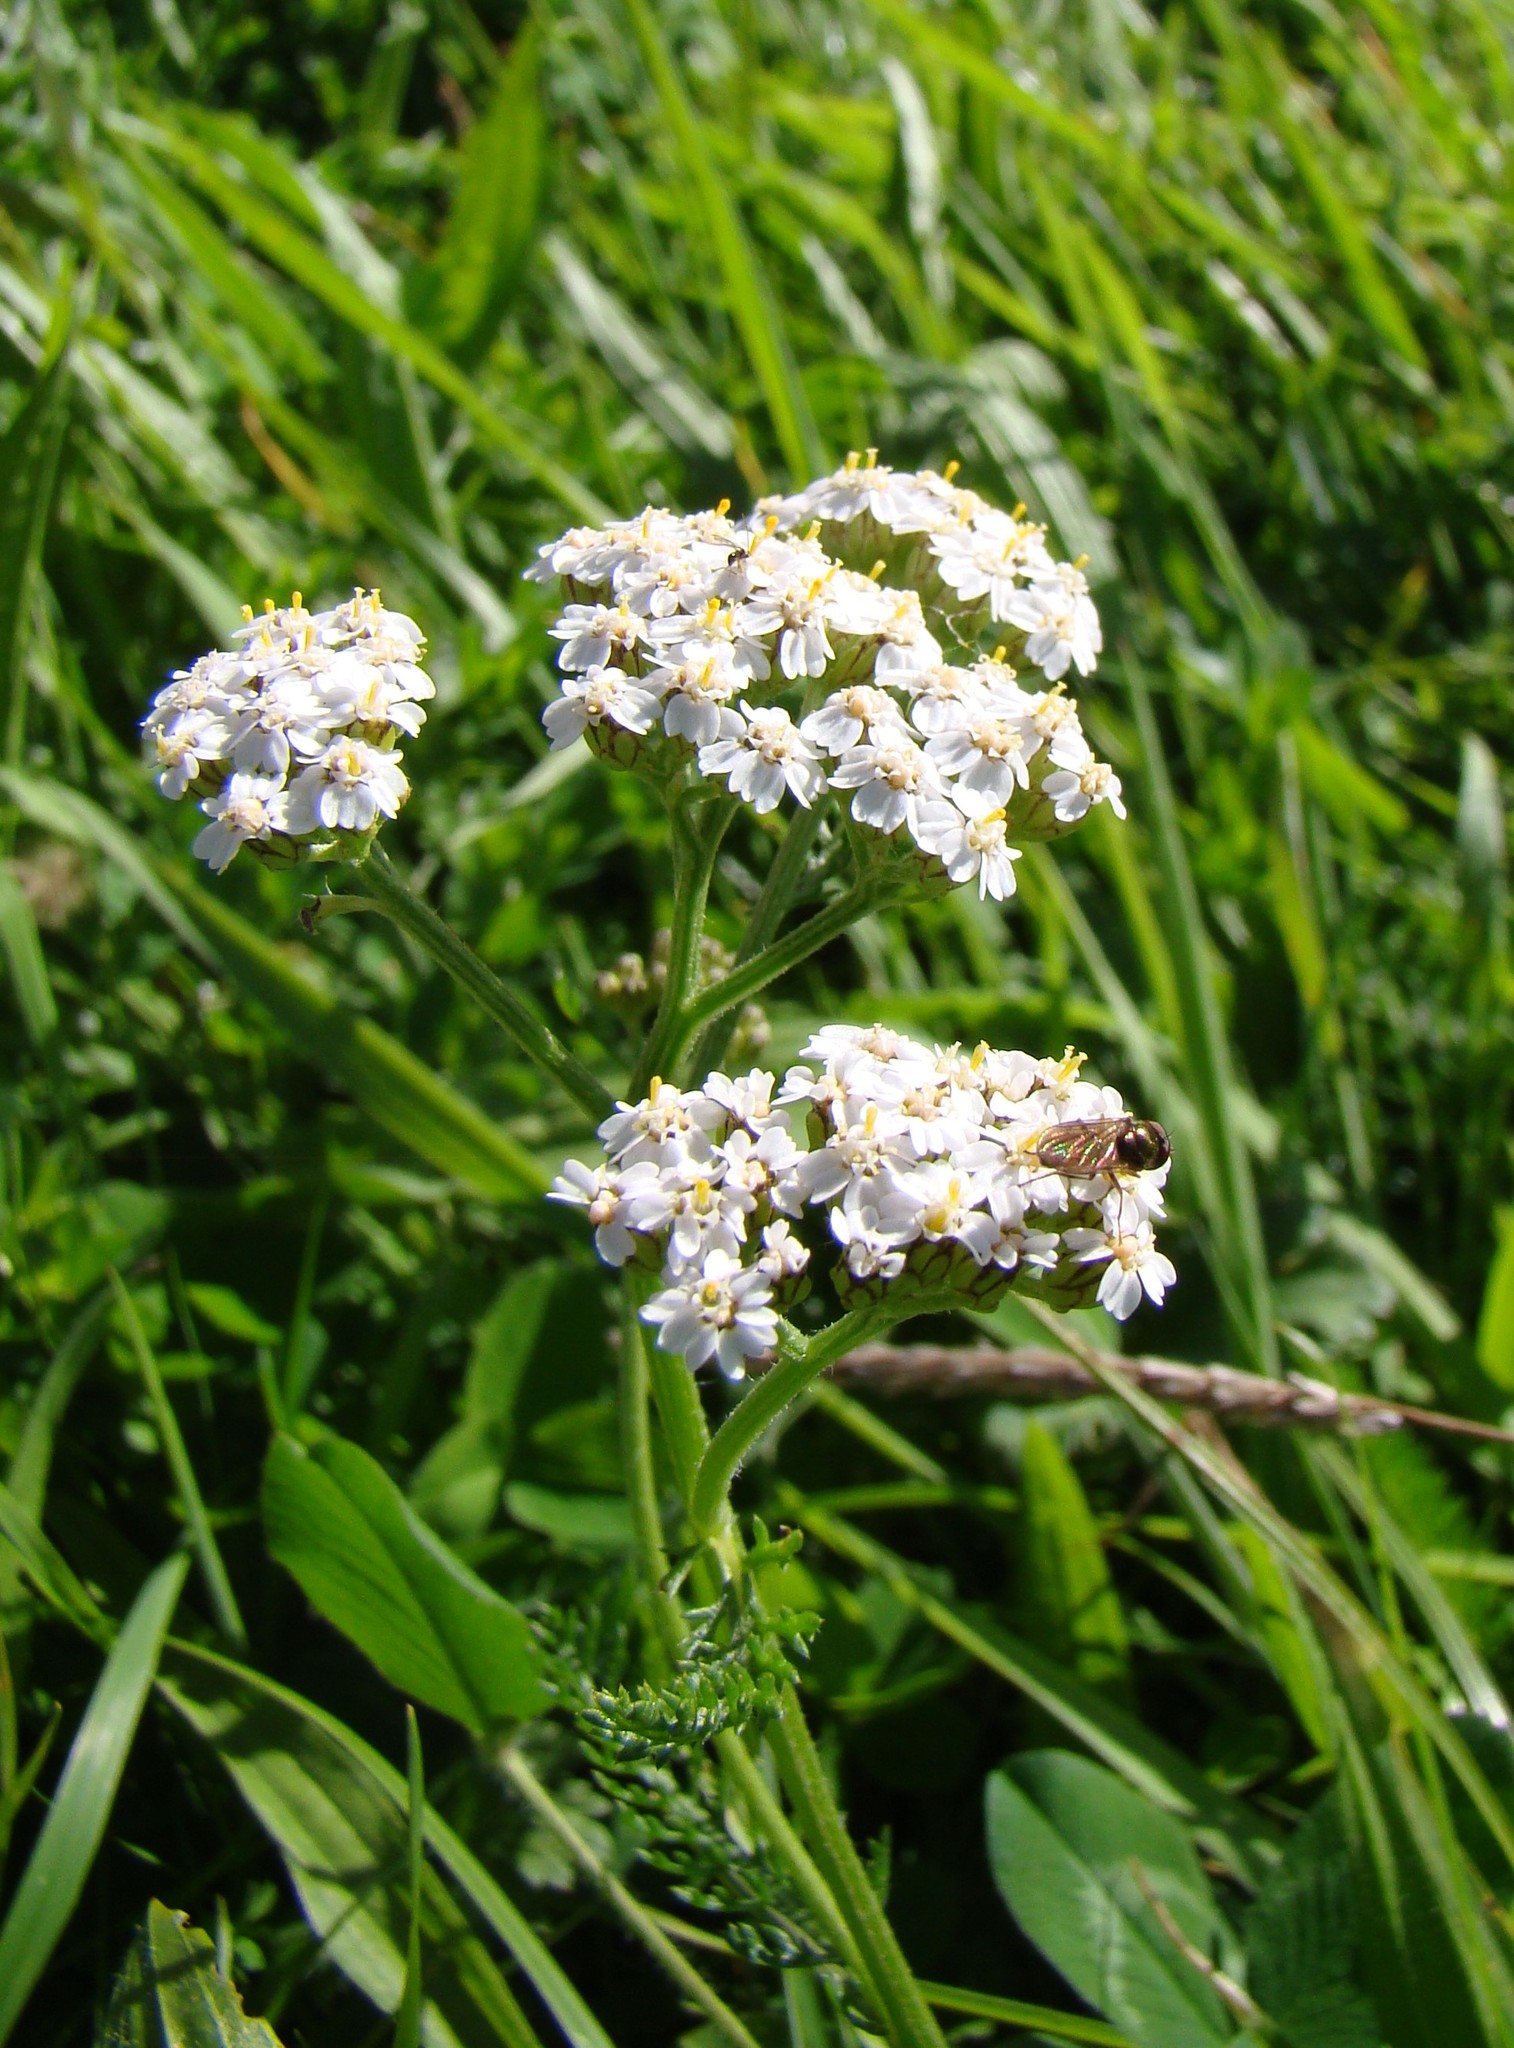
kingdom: Plantae
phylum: Tracheophyta
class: Magnoliopsida
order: Asterales
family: Asteraceae
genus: Achillea
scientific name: Achillea millefolium
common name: Yarrow
